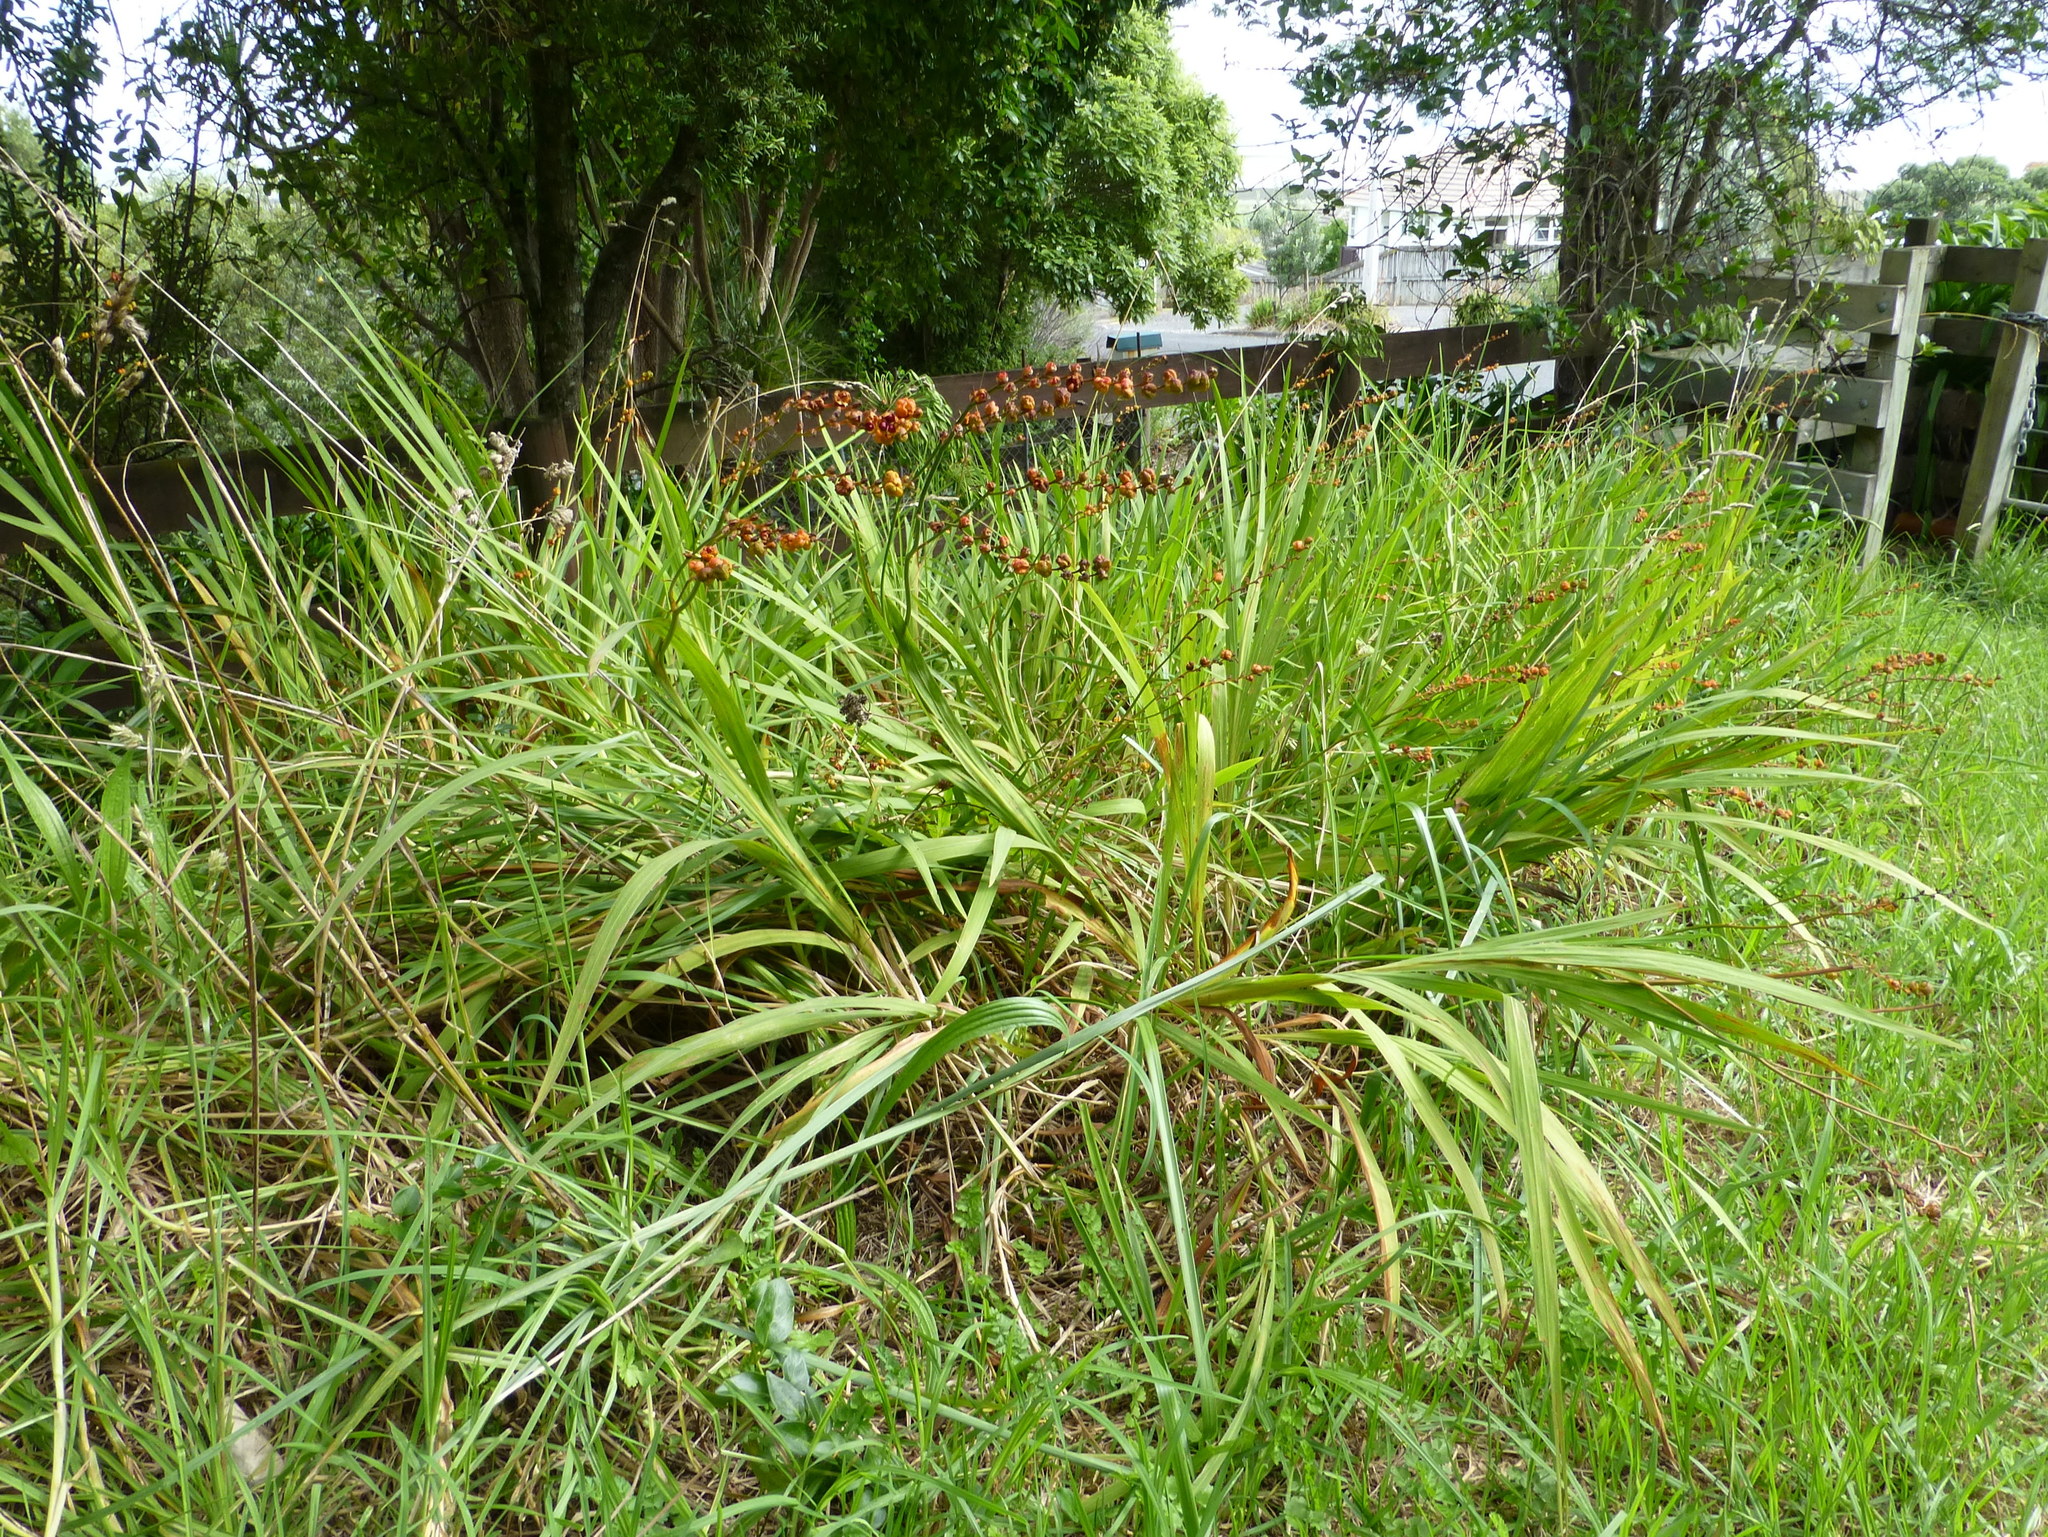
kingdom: Plantae
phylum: Tracheophyta
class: Liliopsida
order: Asparagales
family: Iridaceae
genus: Crocosmia
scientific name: Crocosmia crocosmiiflora
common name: Montbretia
